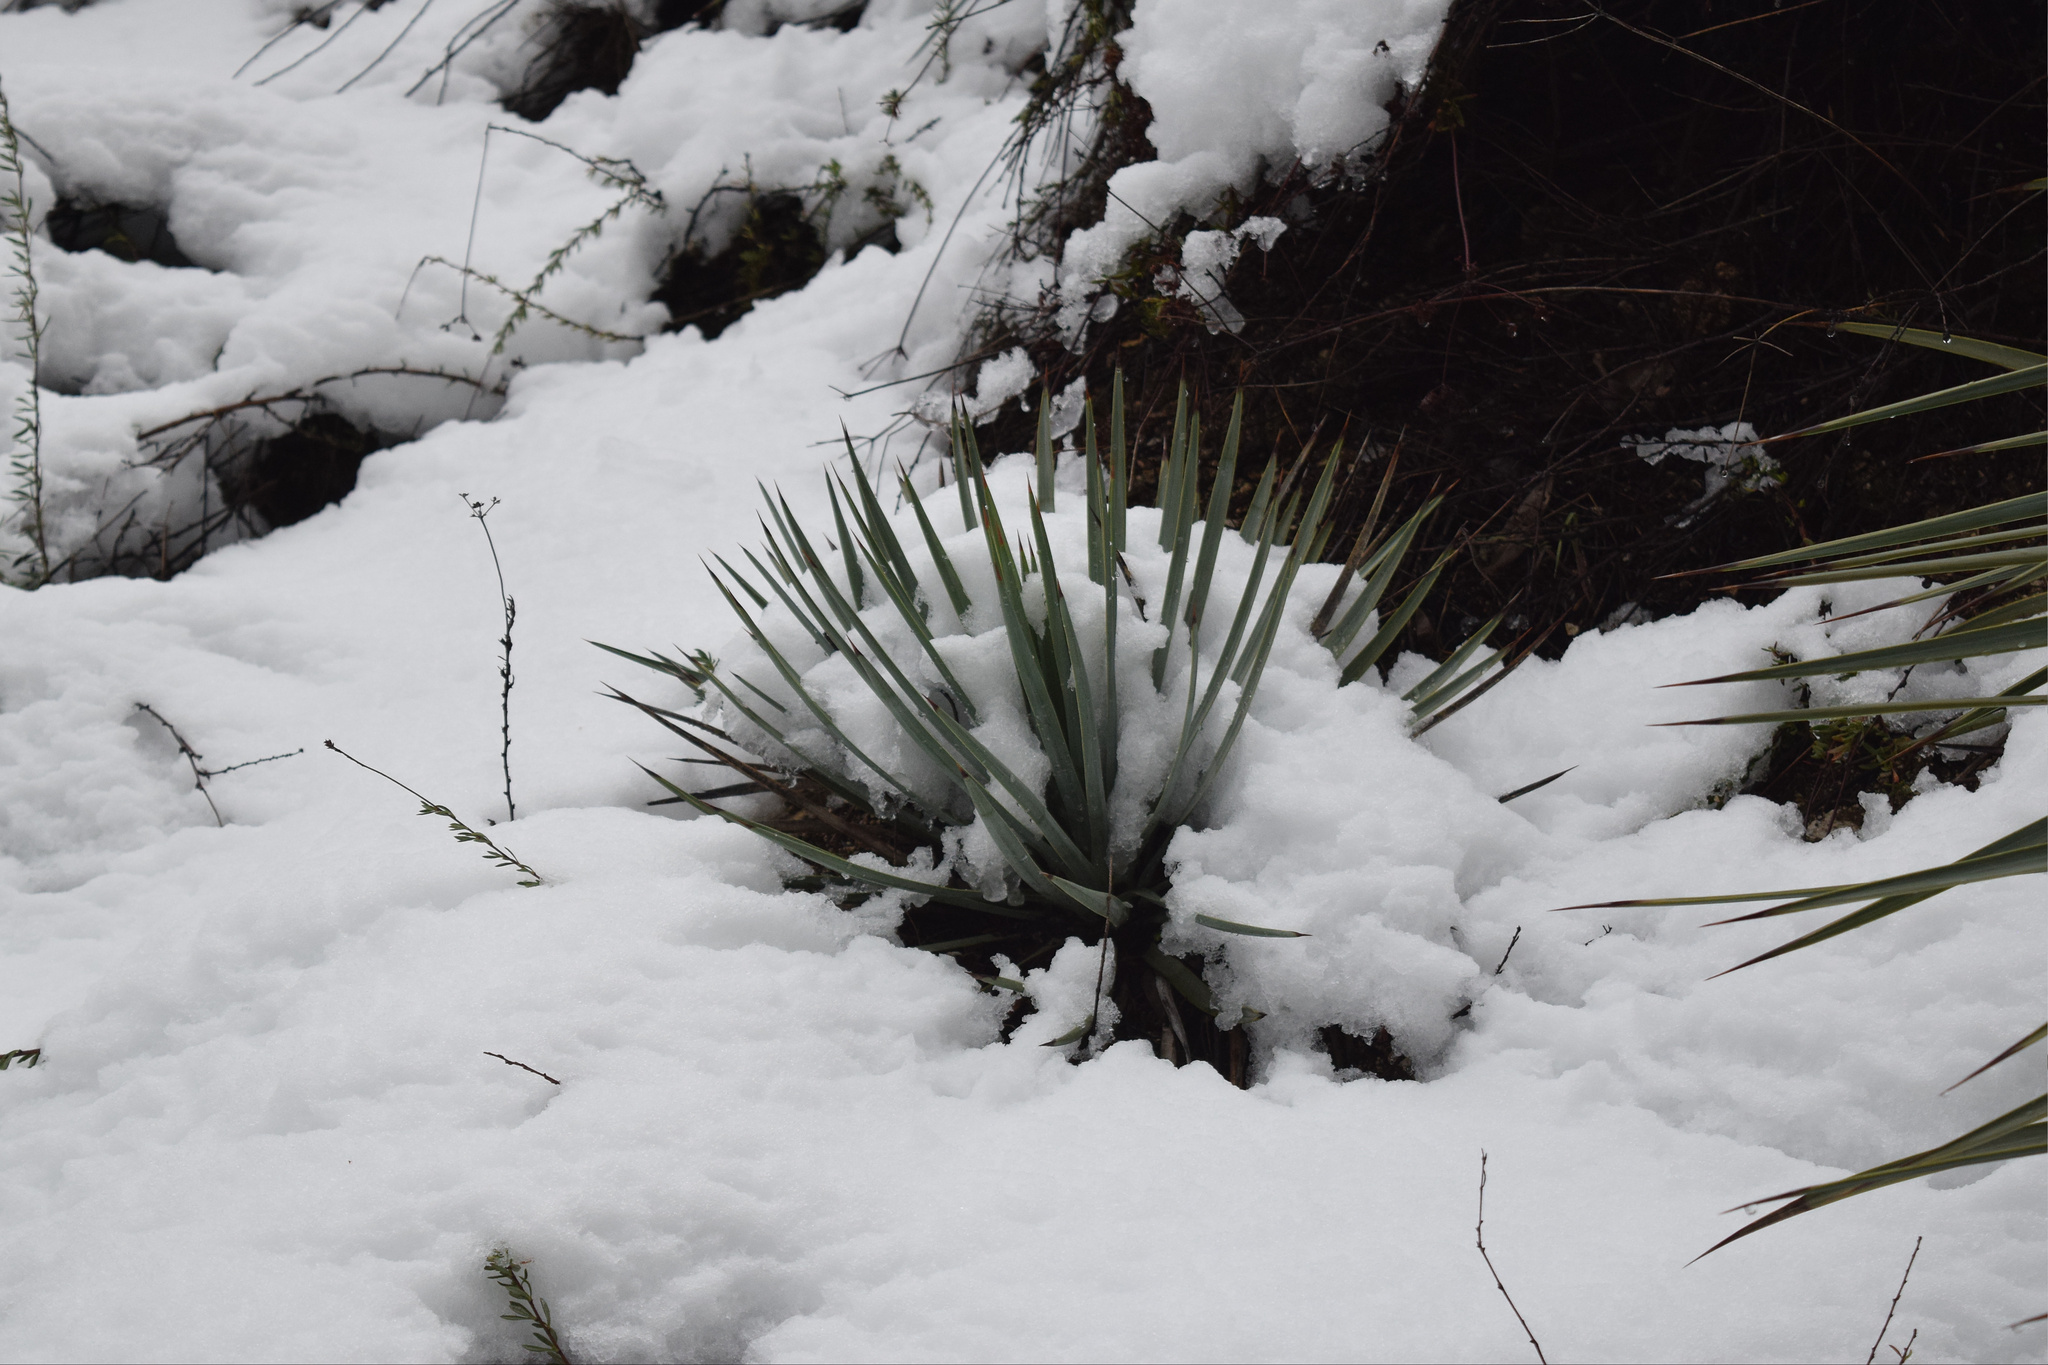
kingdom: Plantae
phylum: Tracheophyta
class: Liliopsida
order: Asparagales
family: Asparagaceae
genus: Hesperoyucca
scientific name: Hesperoyucca whipplei
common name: Our lord's-candle
